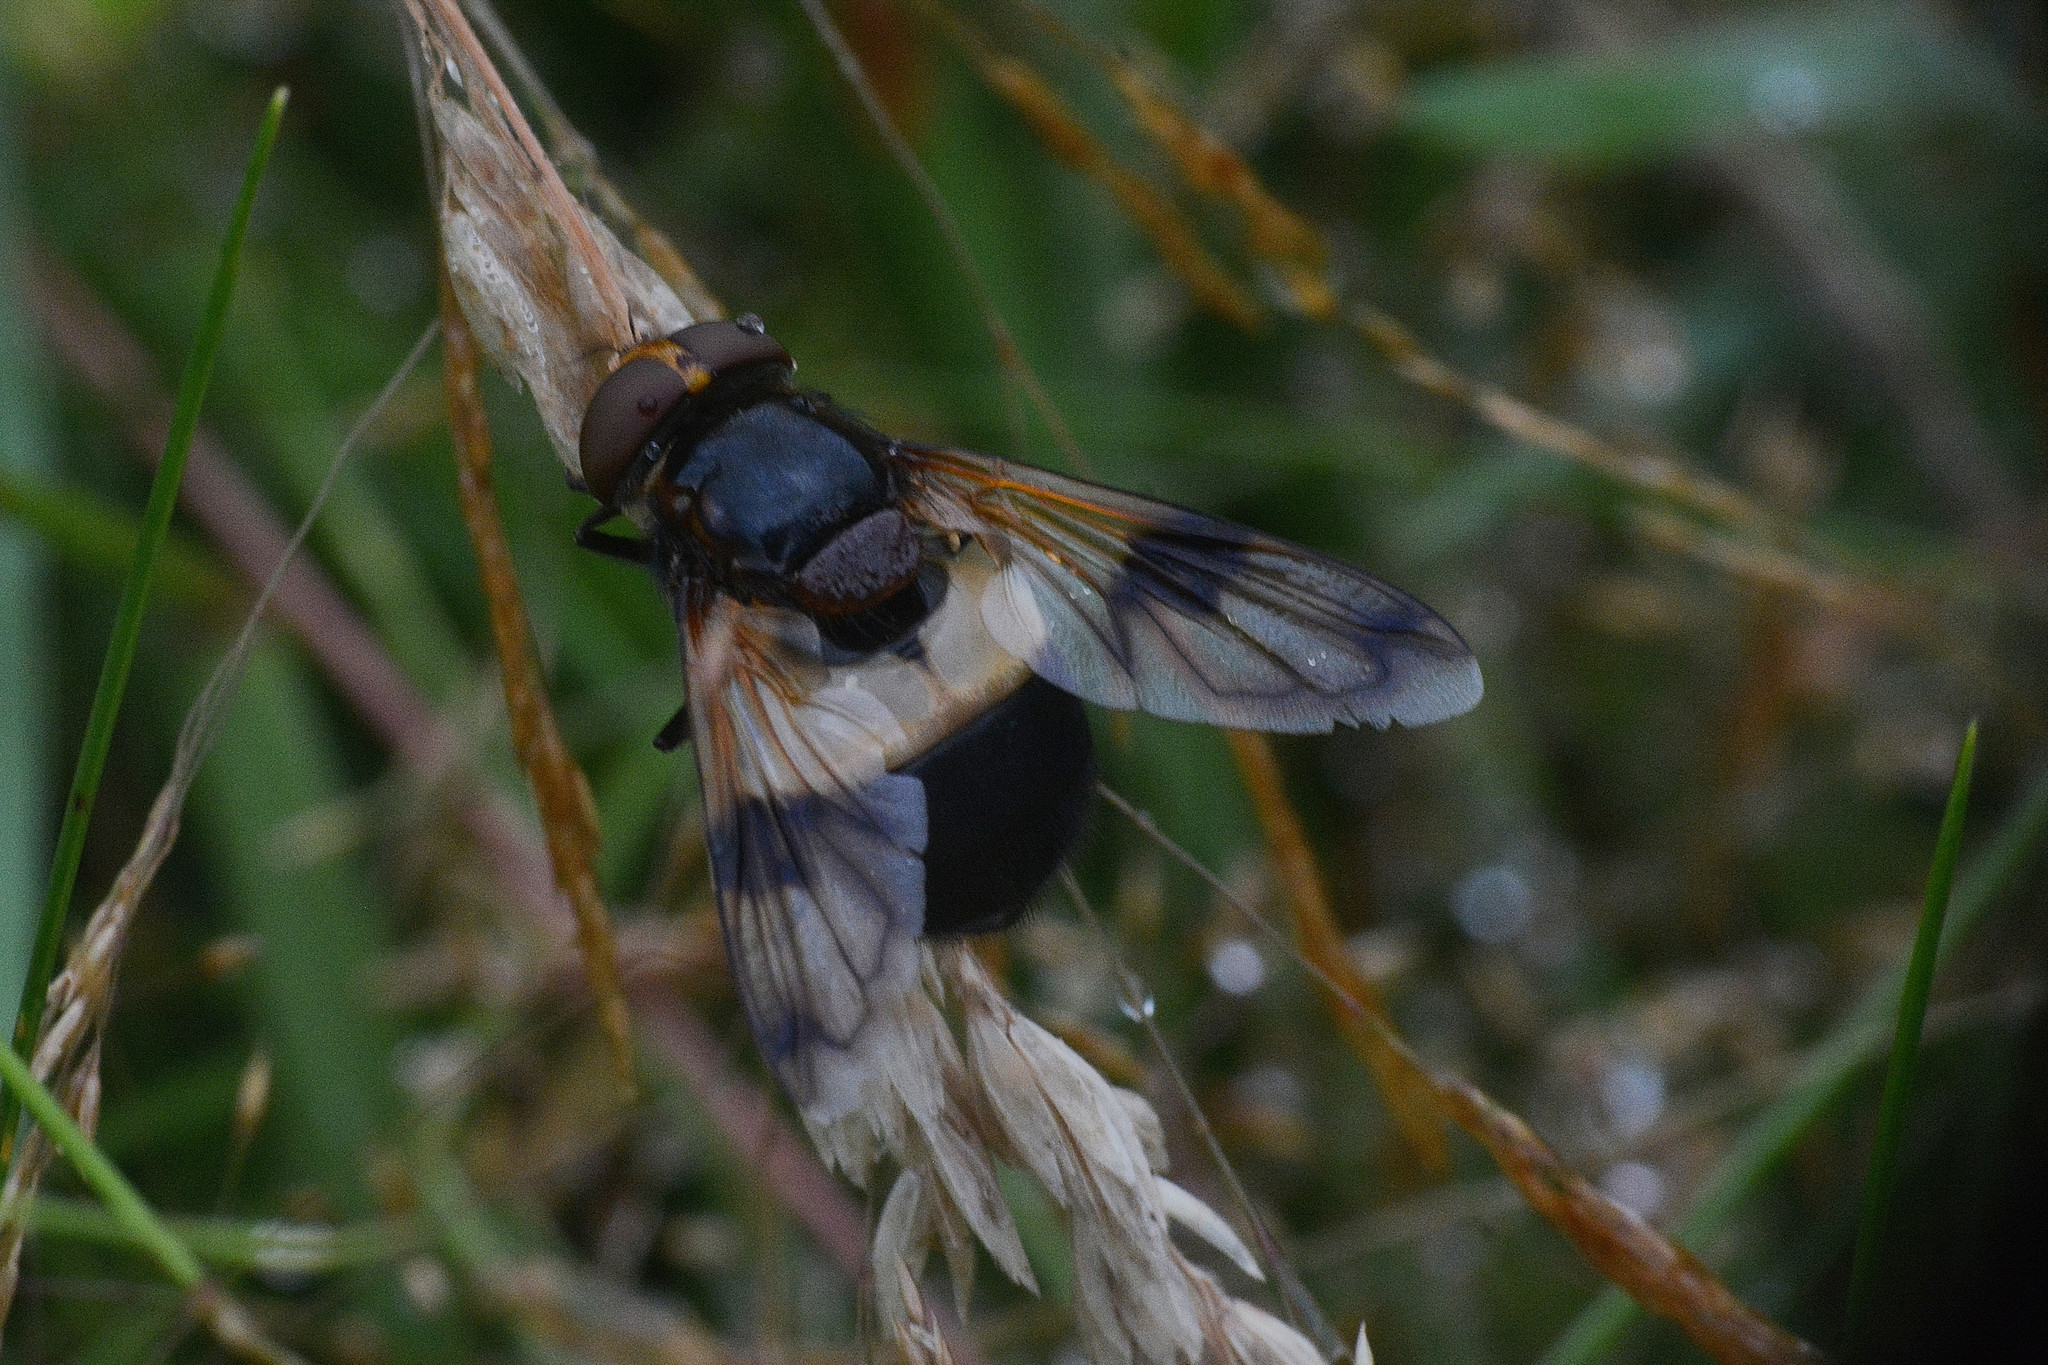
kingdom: Animalia
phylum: Arthropoda
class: Insecta
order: Diptera
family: Syrphidae
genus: Volucella
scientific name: Volucella pellucens
